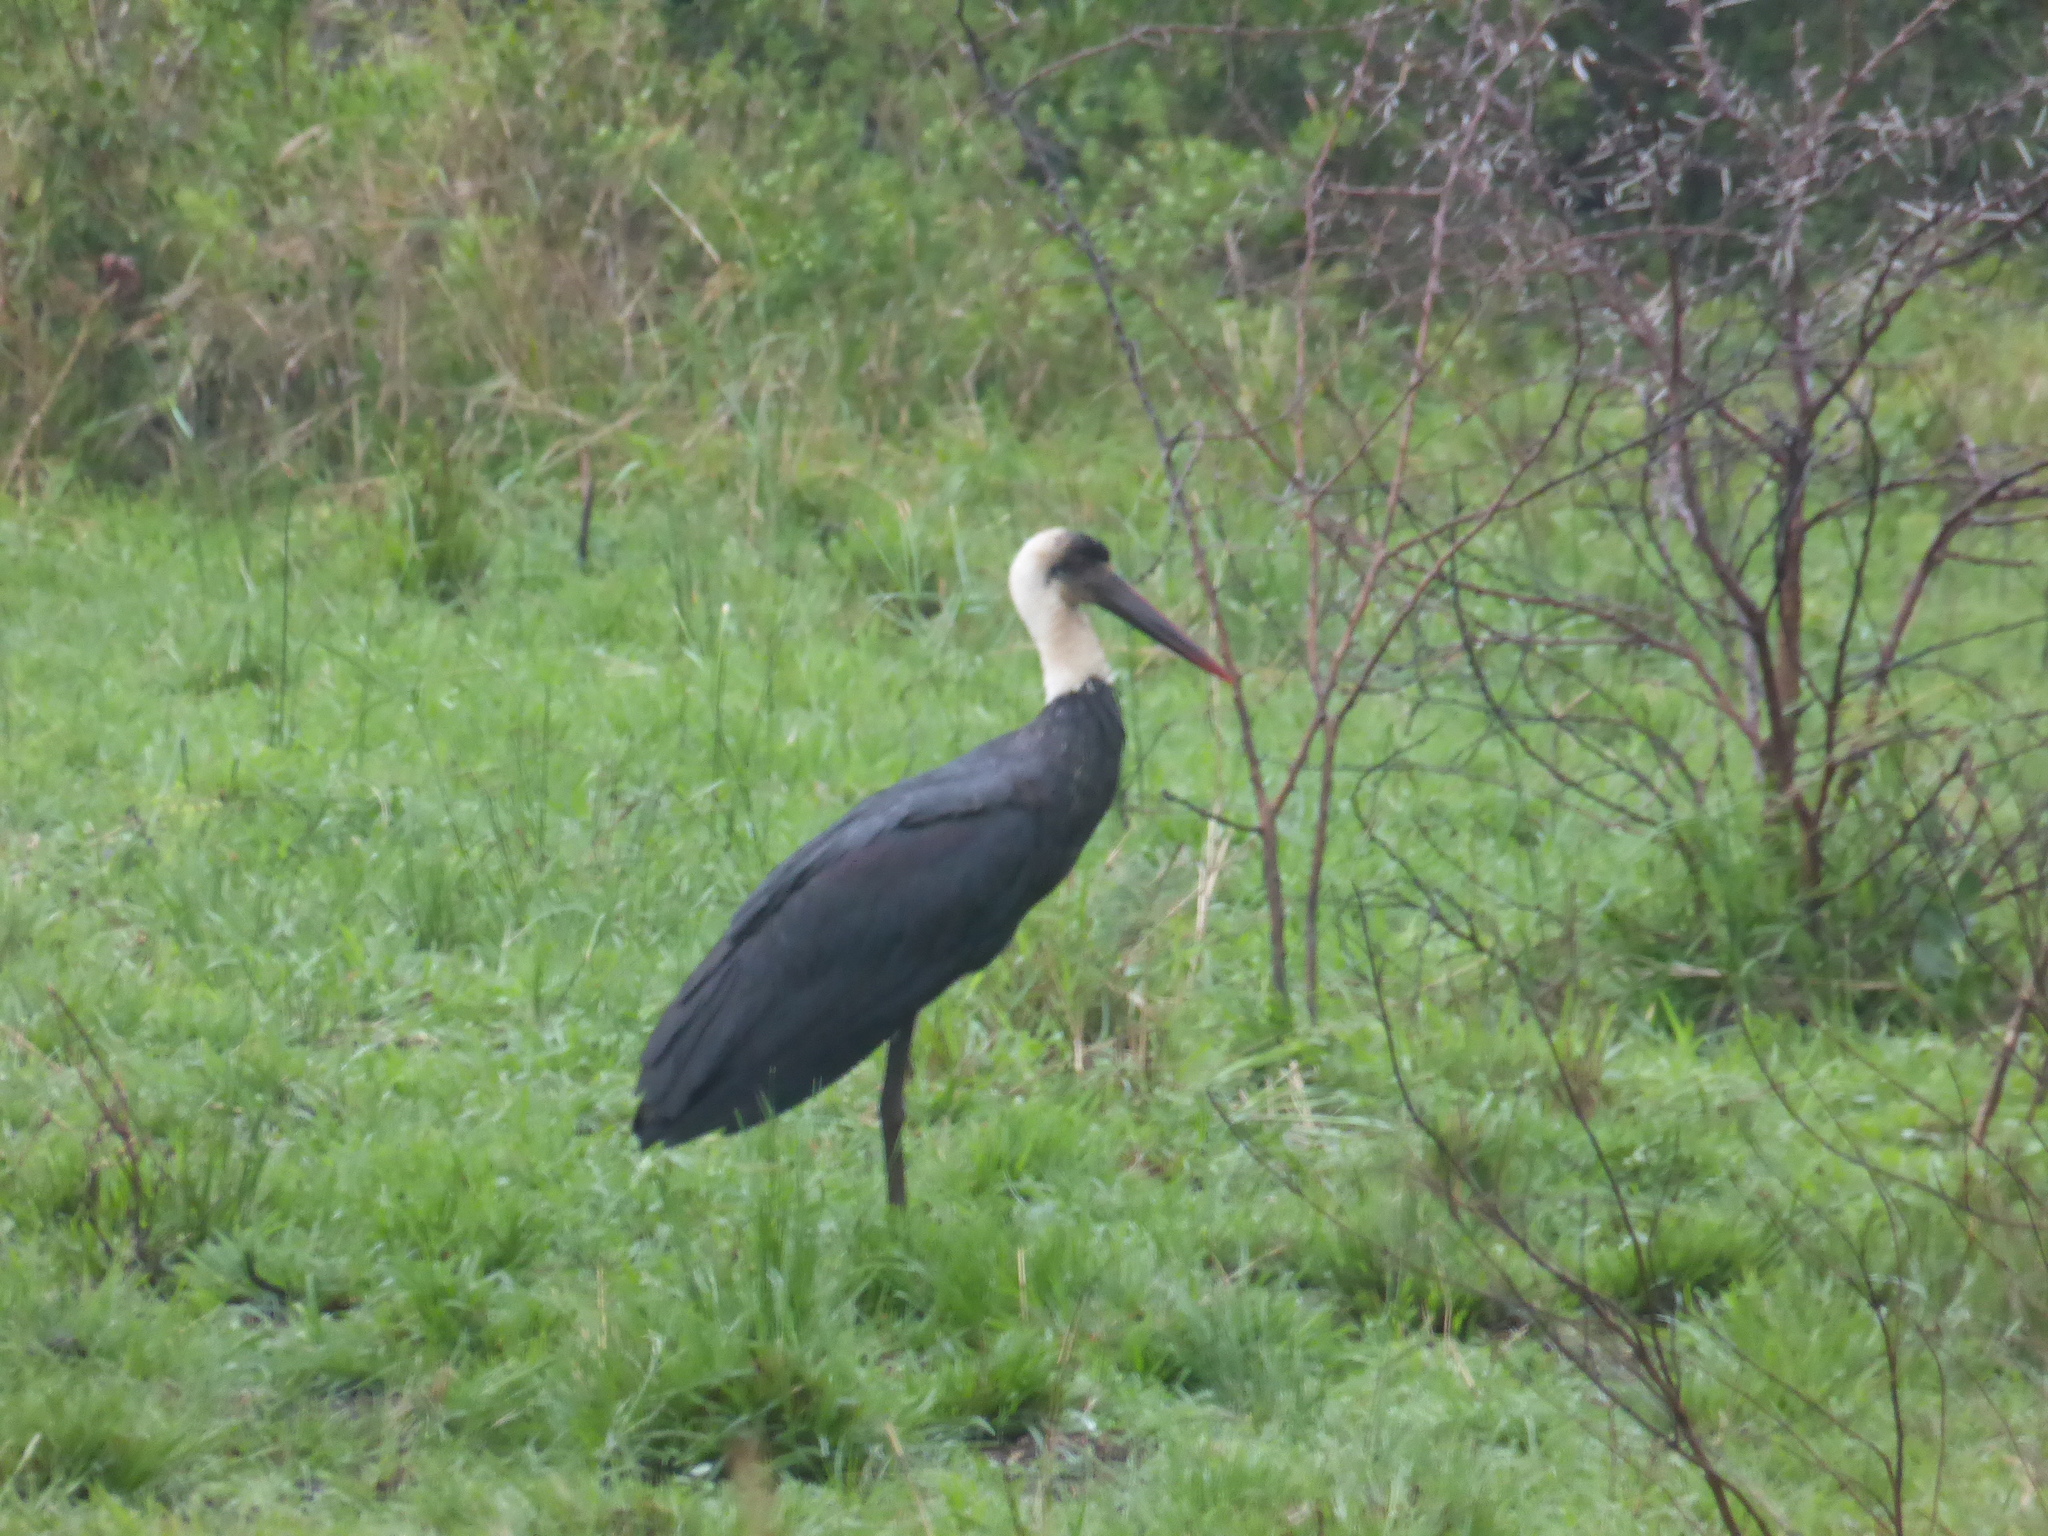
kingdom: Animalia
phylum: Chordata
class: Aves
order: Ciconiiformes
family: Ciconiidae
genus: Ciconia
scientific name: Ciconia microscelis
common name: African woollyneck
